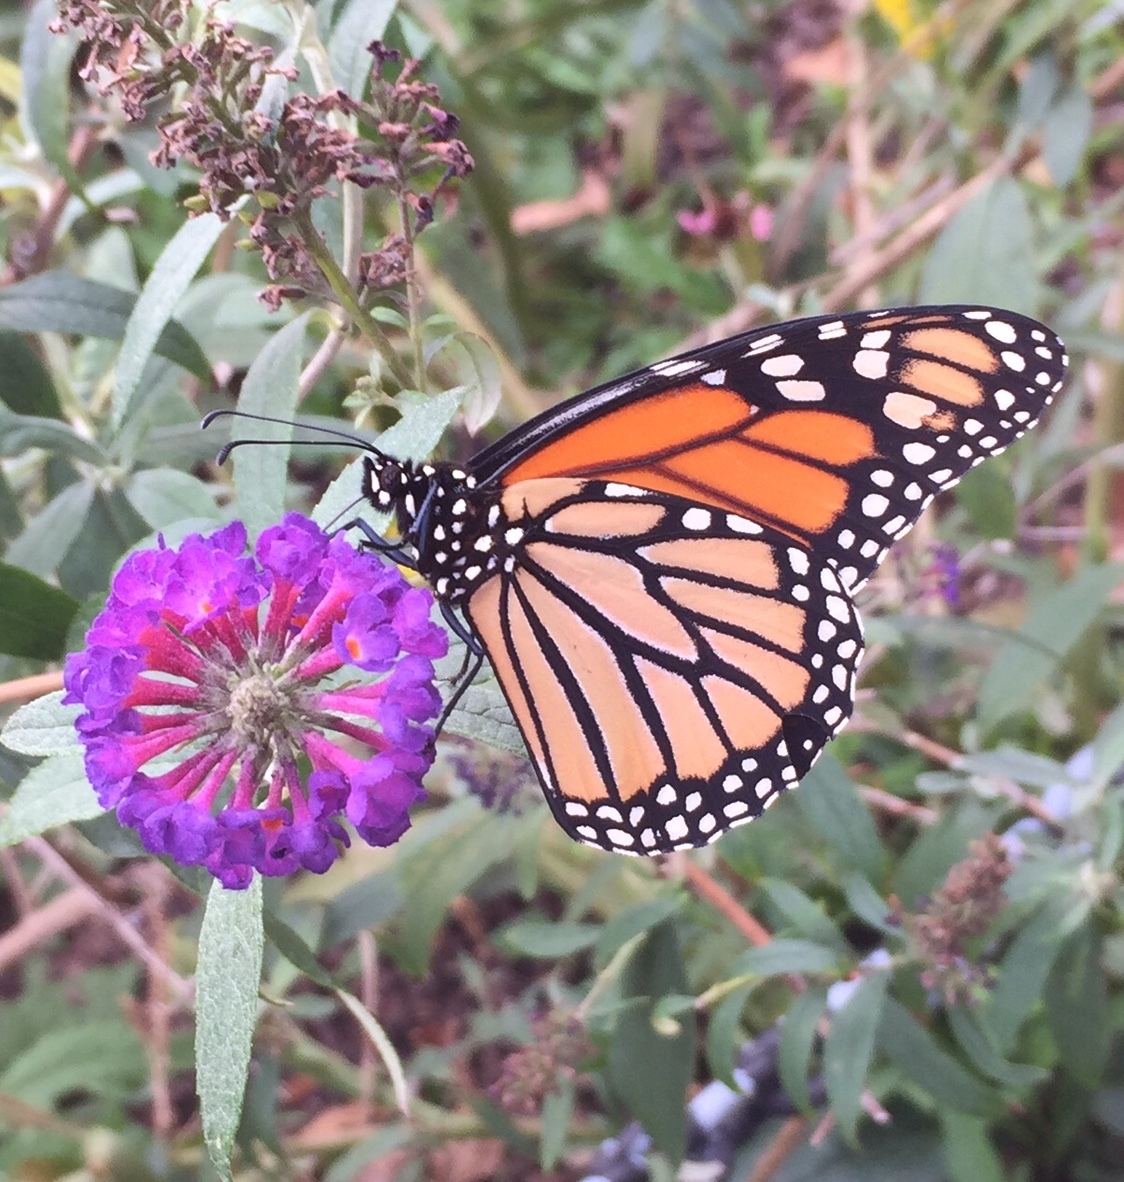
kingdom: Animalia
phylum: Arthropoda
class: Insecta
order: Lepidoptera
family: Nymphalidae
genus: Danaus
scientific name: Danaus plexippus
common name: Monarch
